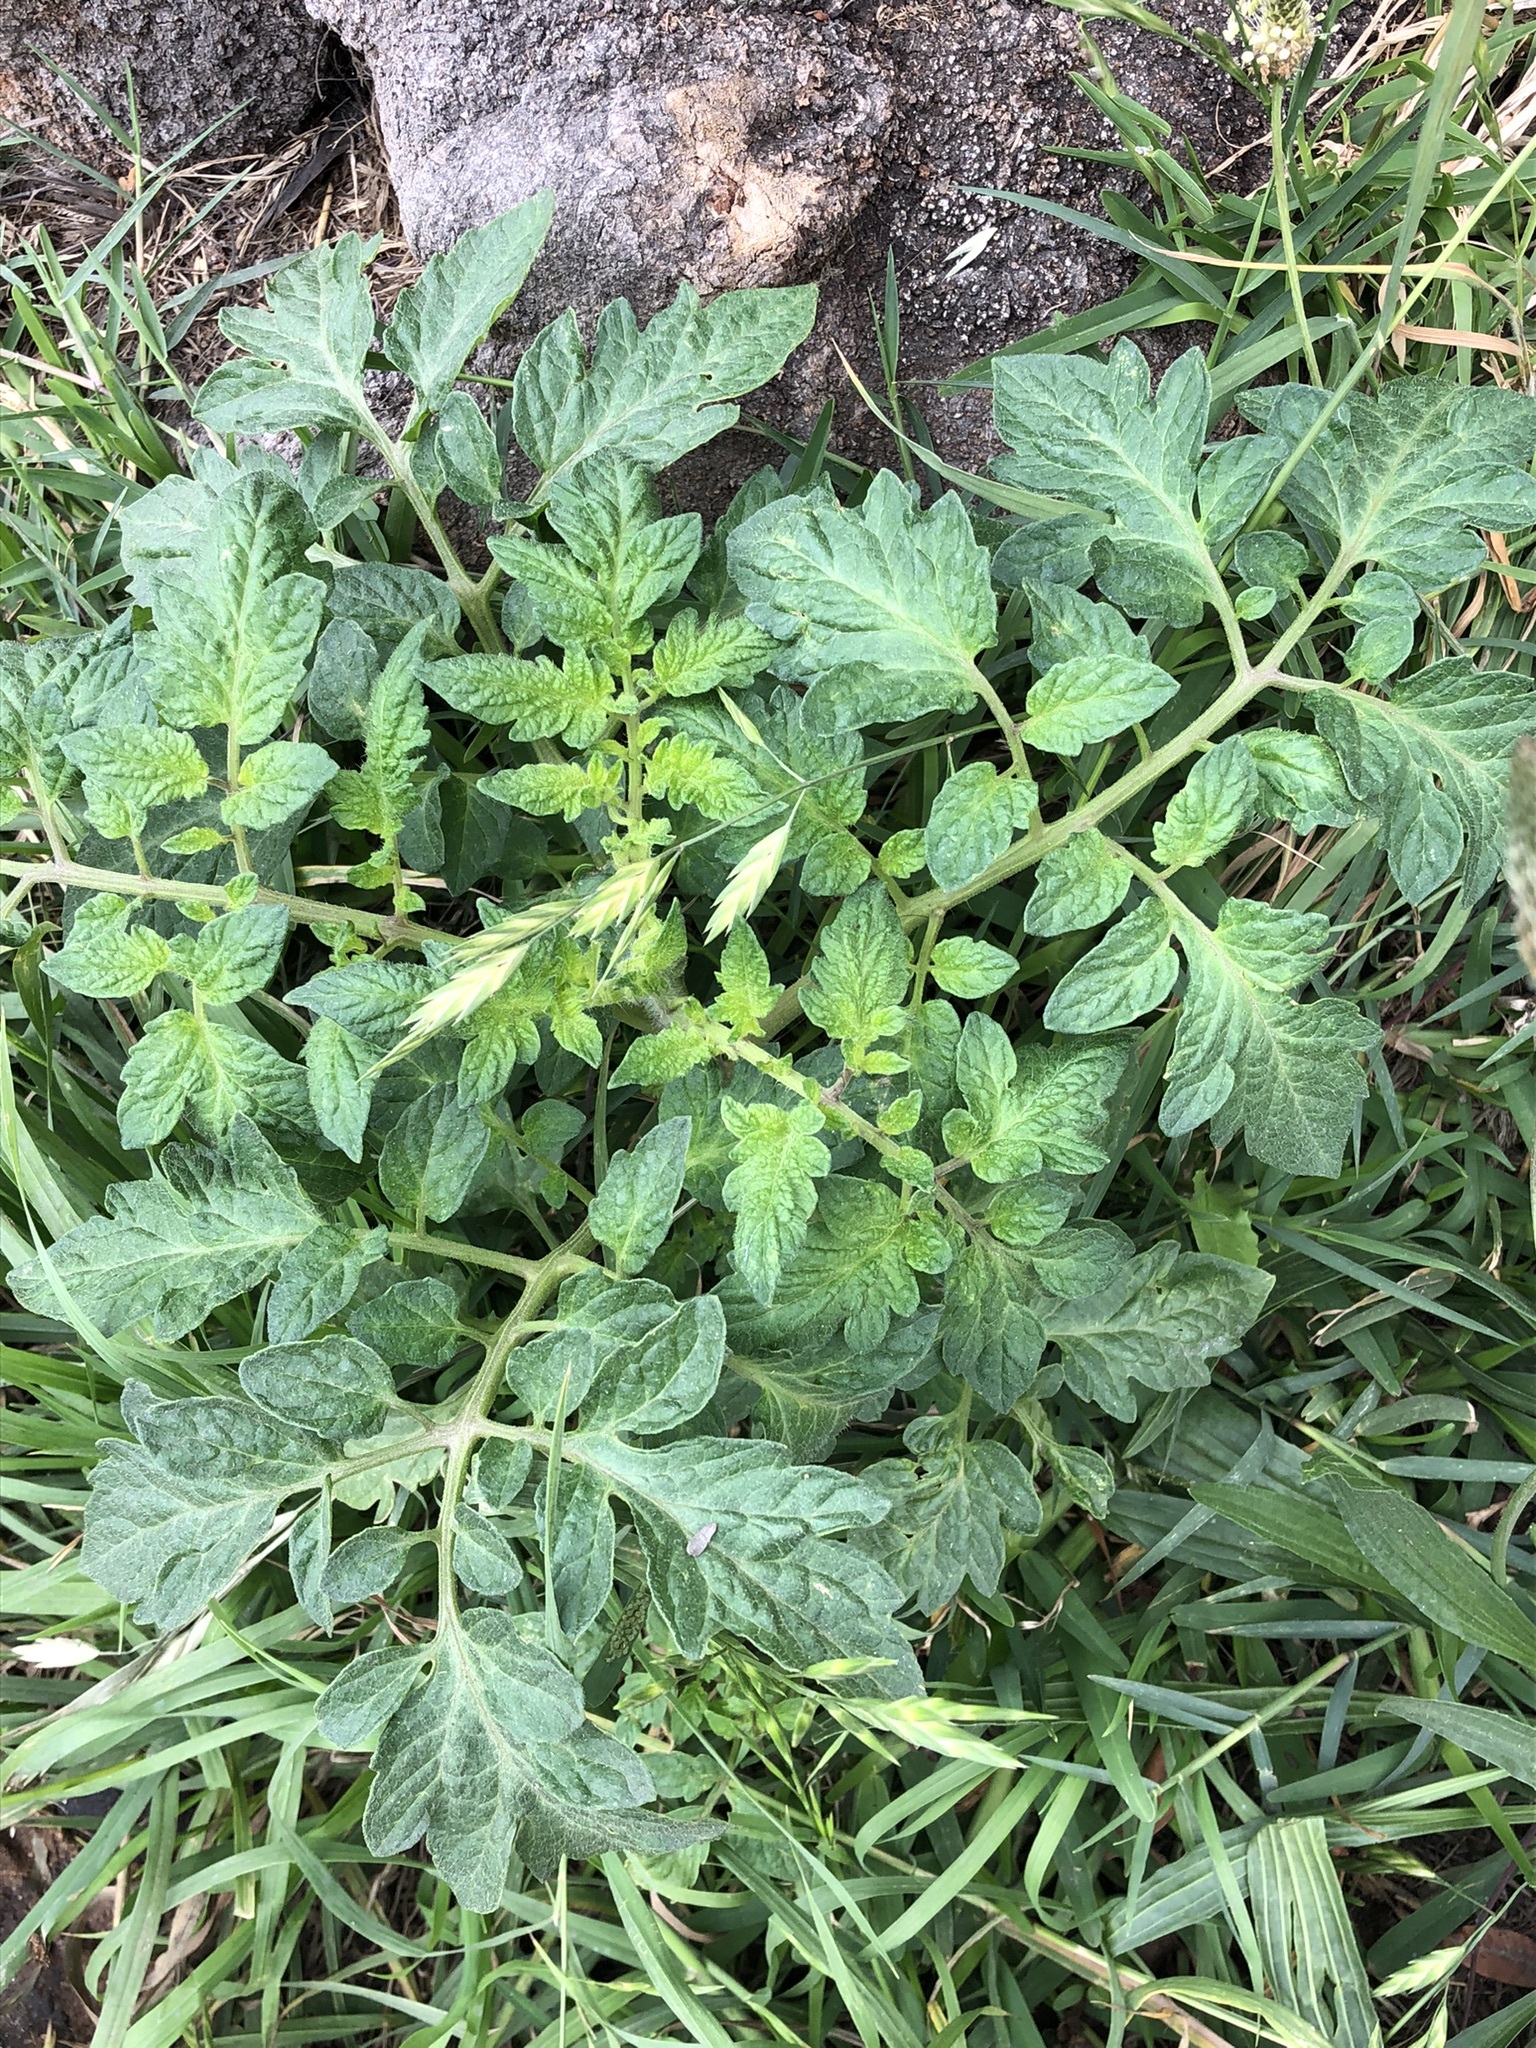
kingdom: Plantae
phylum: Tracheophyta
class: Magnoliopsida
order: Solanales
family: Solanaceae
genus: Solanum
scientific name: Solanum lycopersicum
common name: Garden tomato
